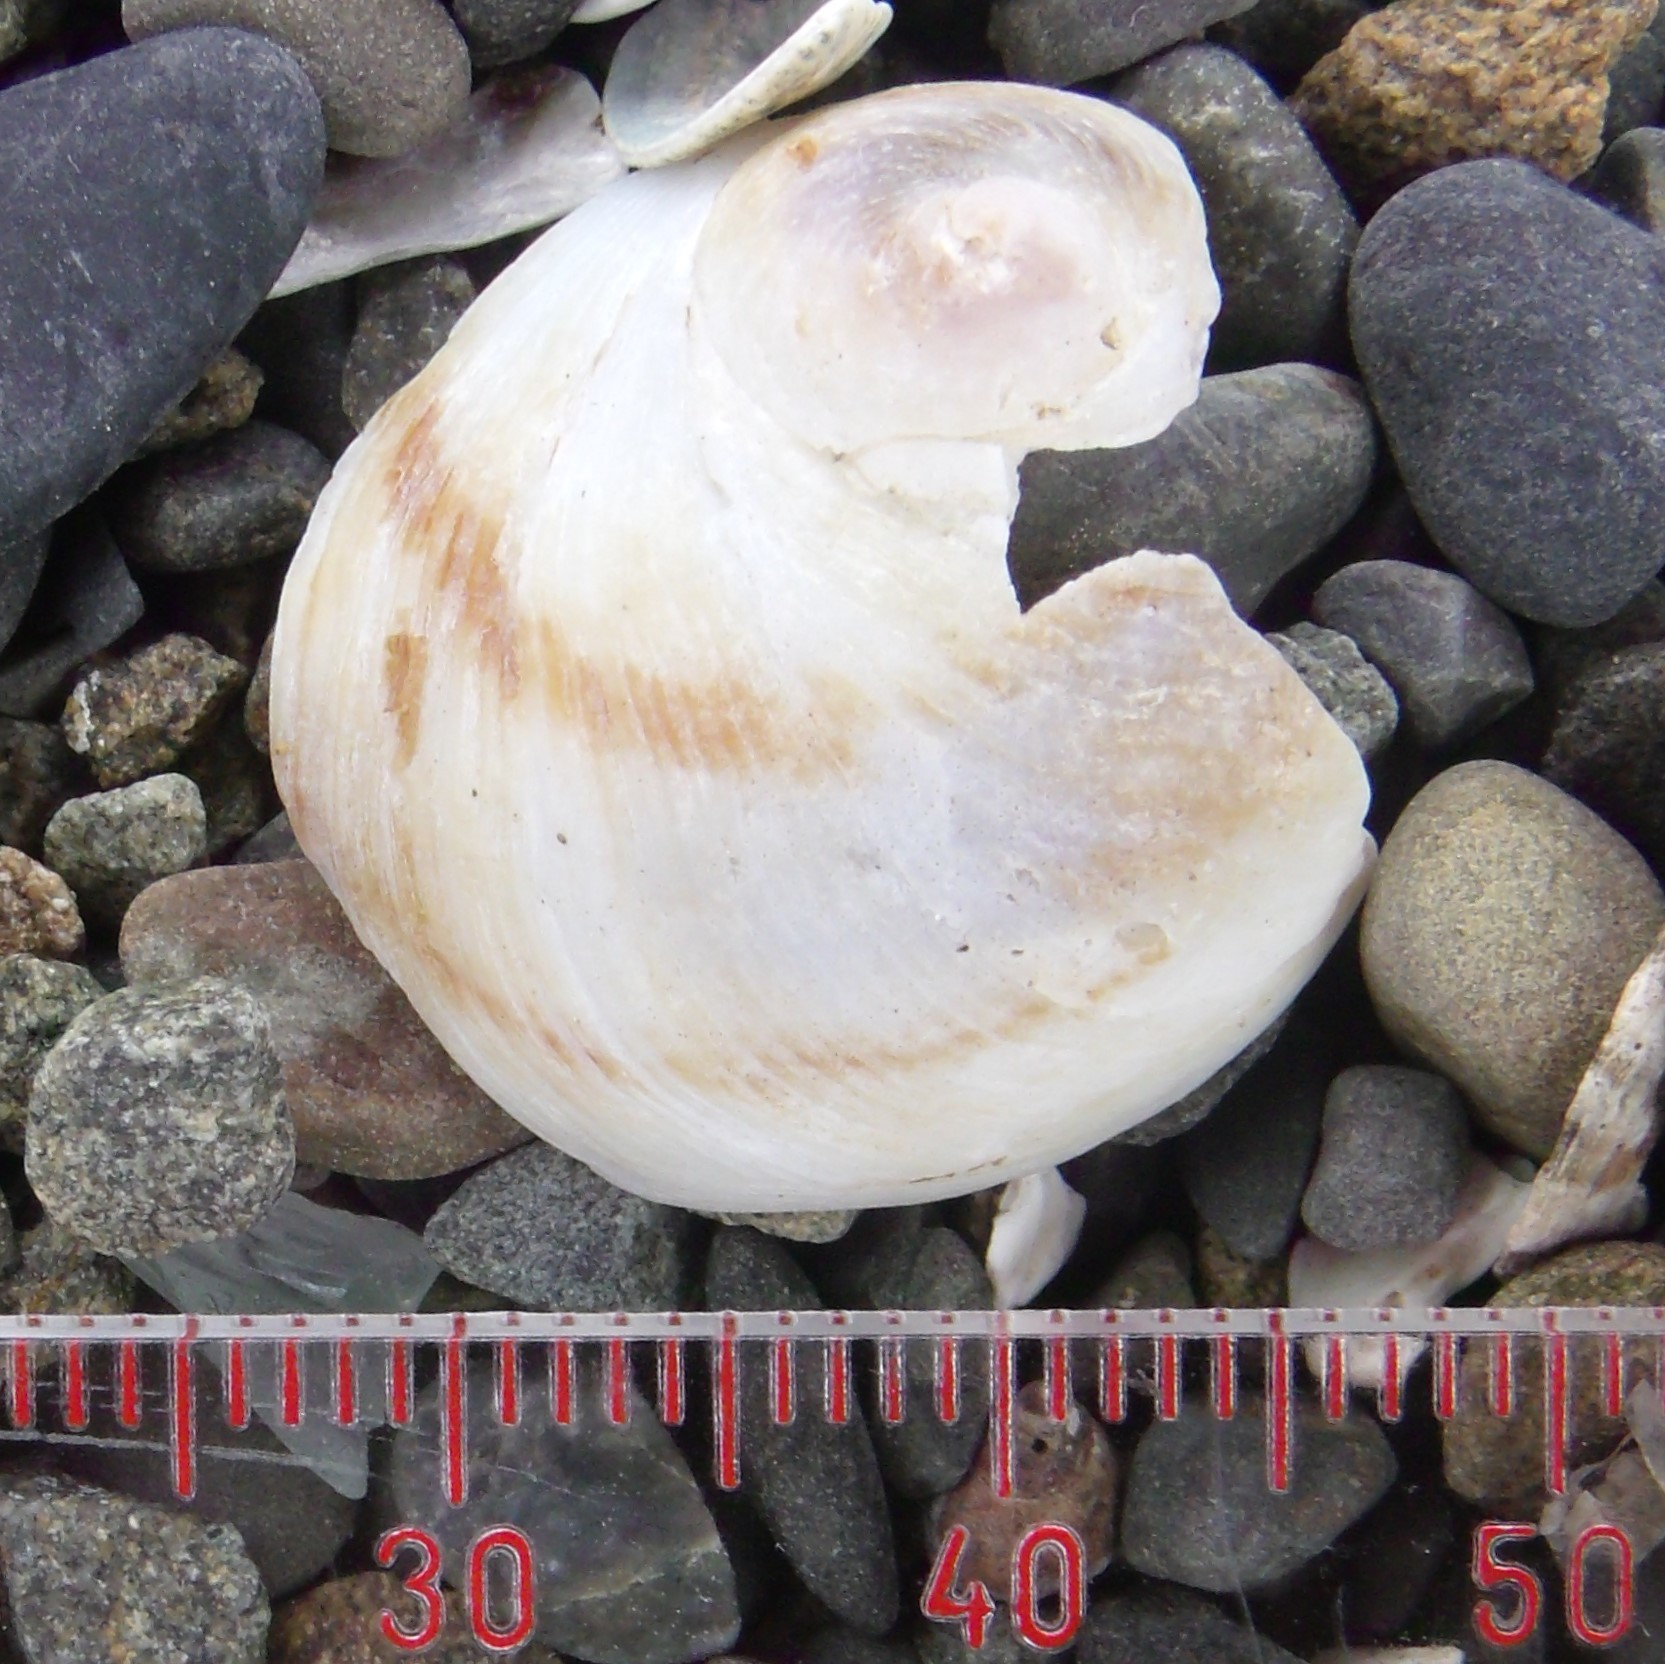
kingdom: Animalia
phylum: Mollusca
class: Gastropoda
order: Littorinimorpha
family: Calyptraeidae
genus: Sigapatella
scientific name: Sigapatella novaezelandiae
